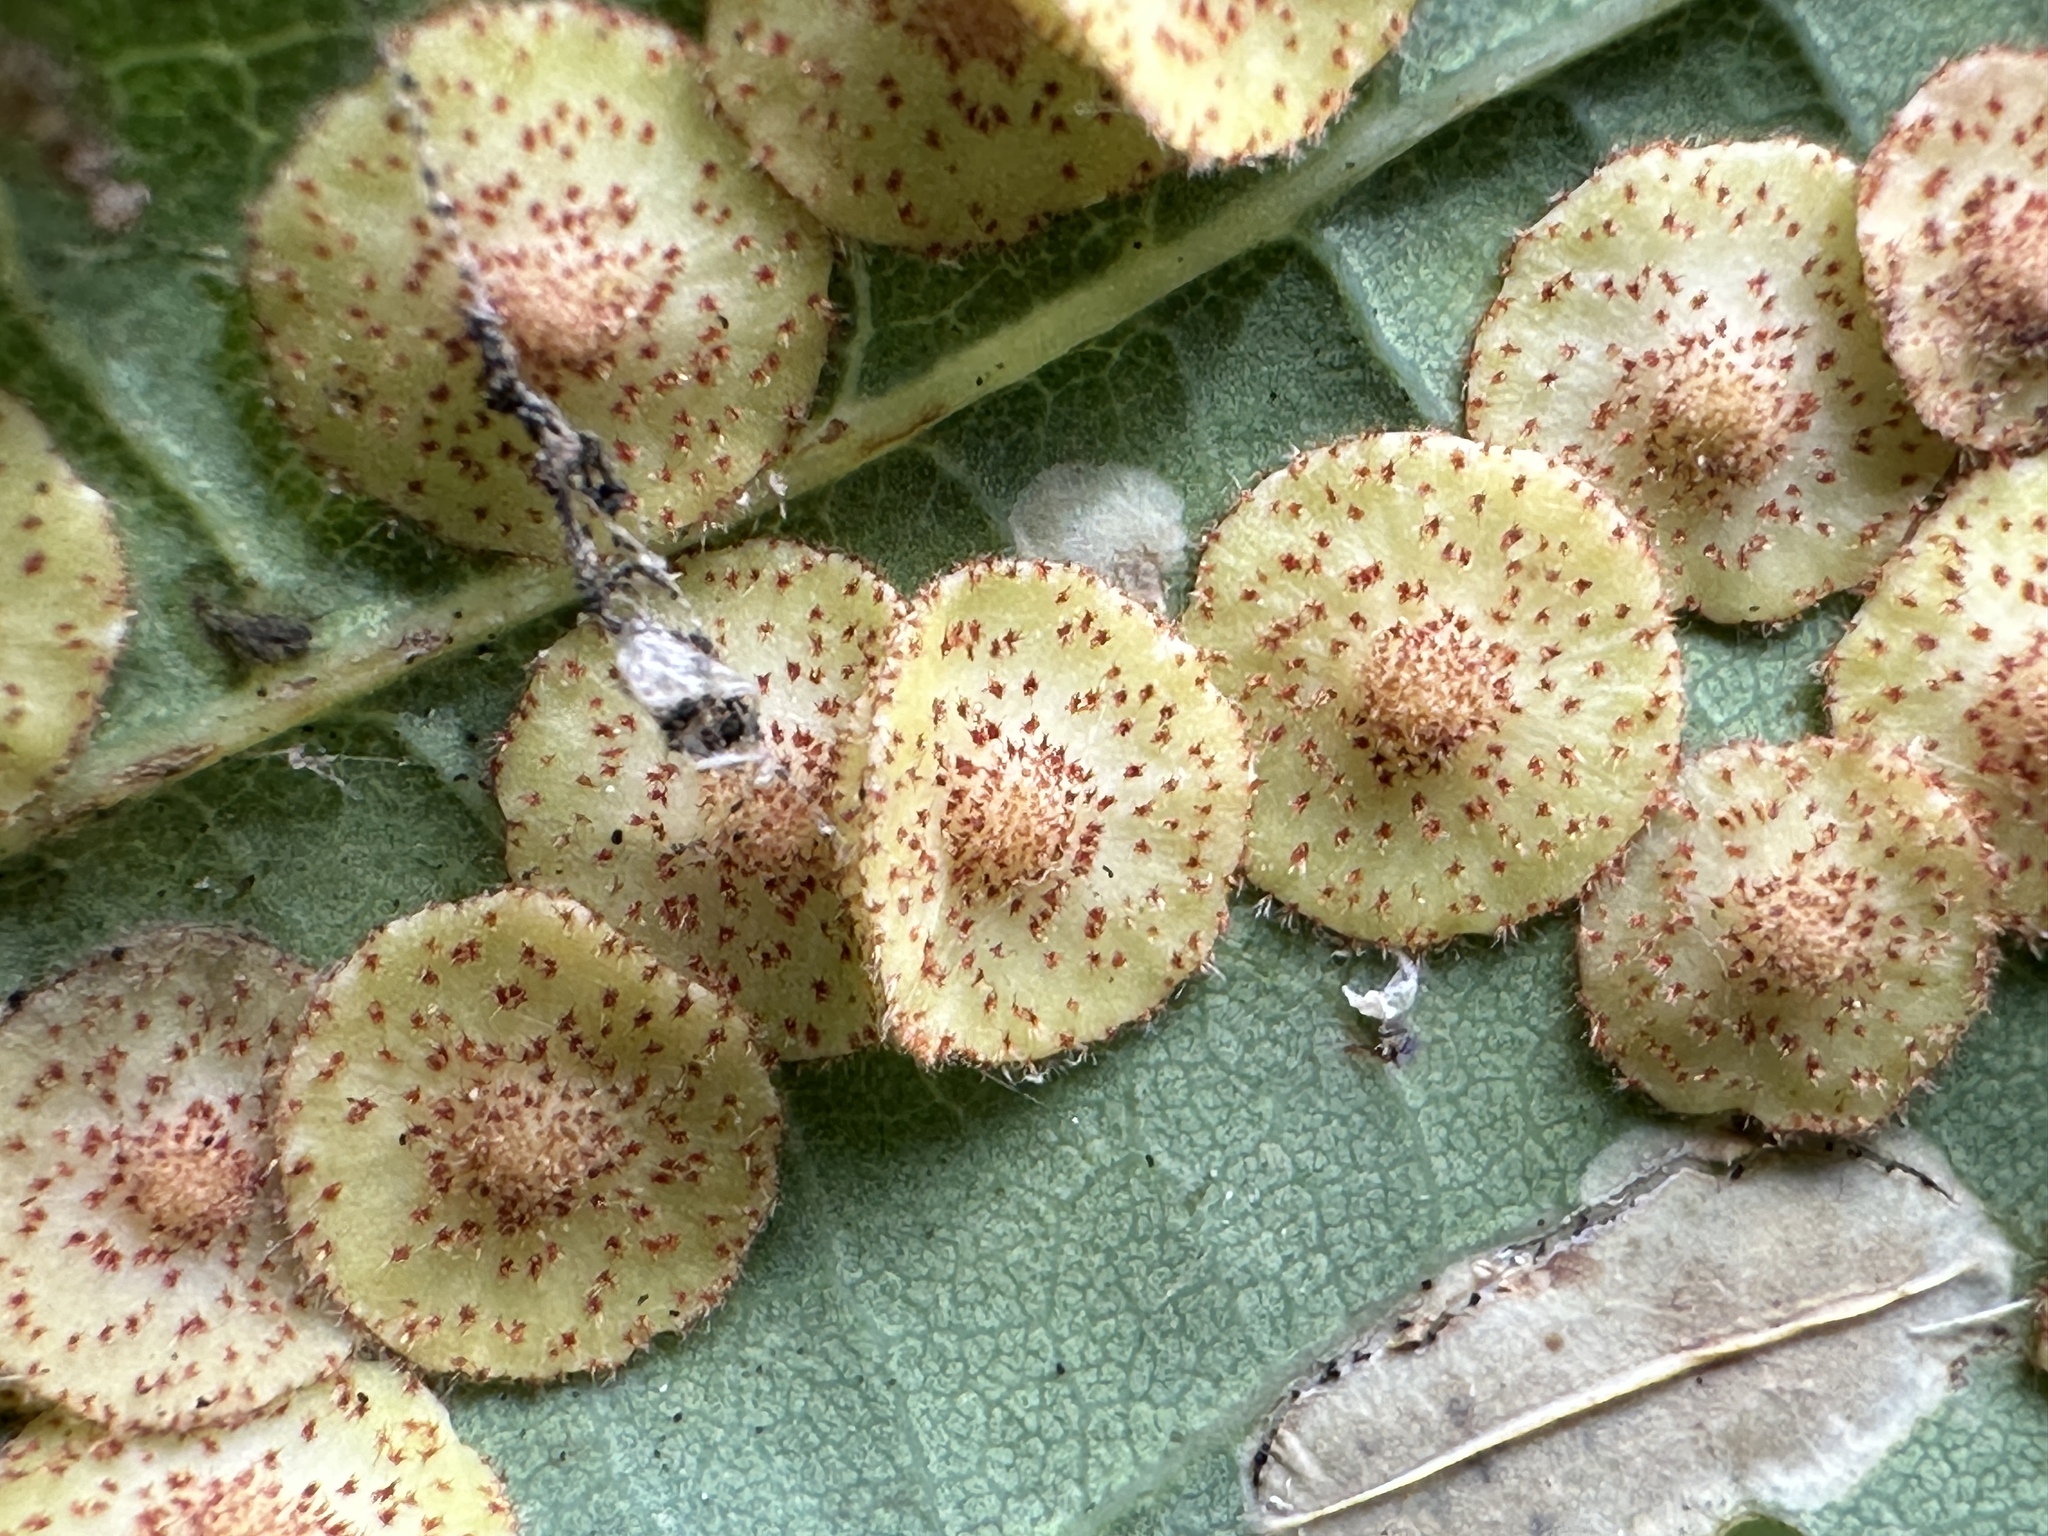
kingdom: Animalia
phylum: Arthropoda
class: Insecta
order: Hymenoptera
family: Cynipidae
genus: Neuroterus
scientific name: Neuroterus quercusbaccarum
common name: Common spangle gall
